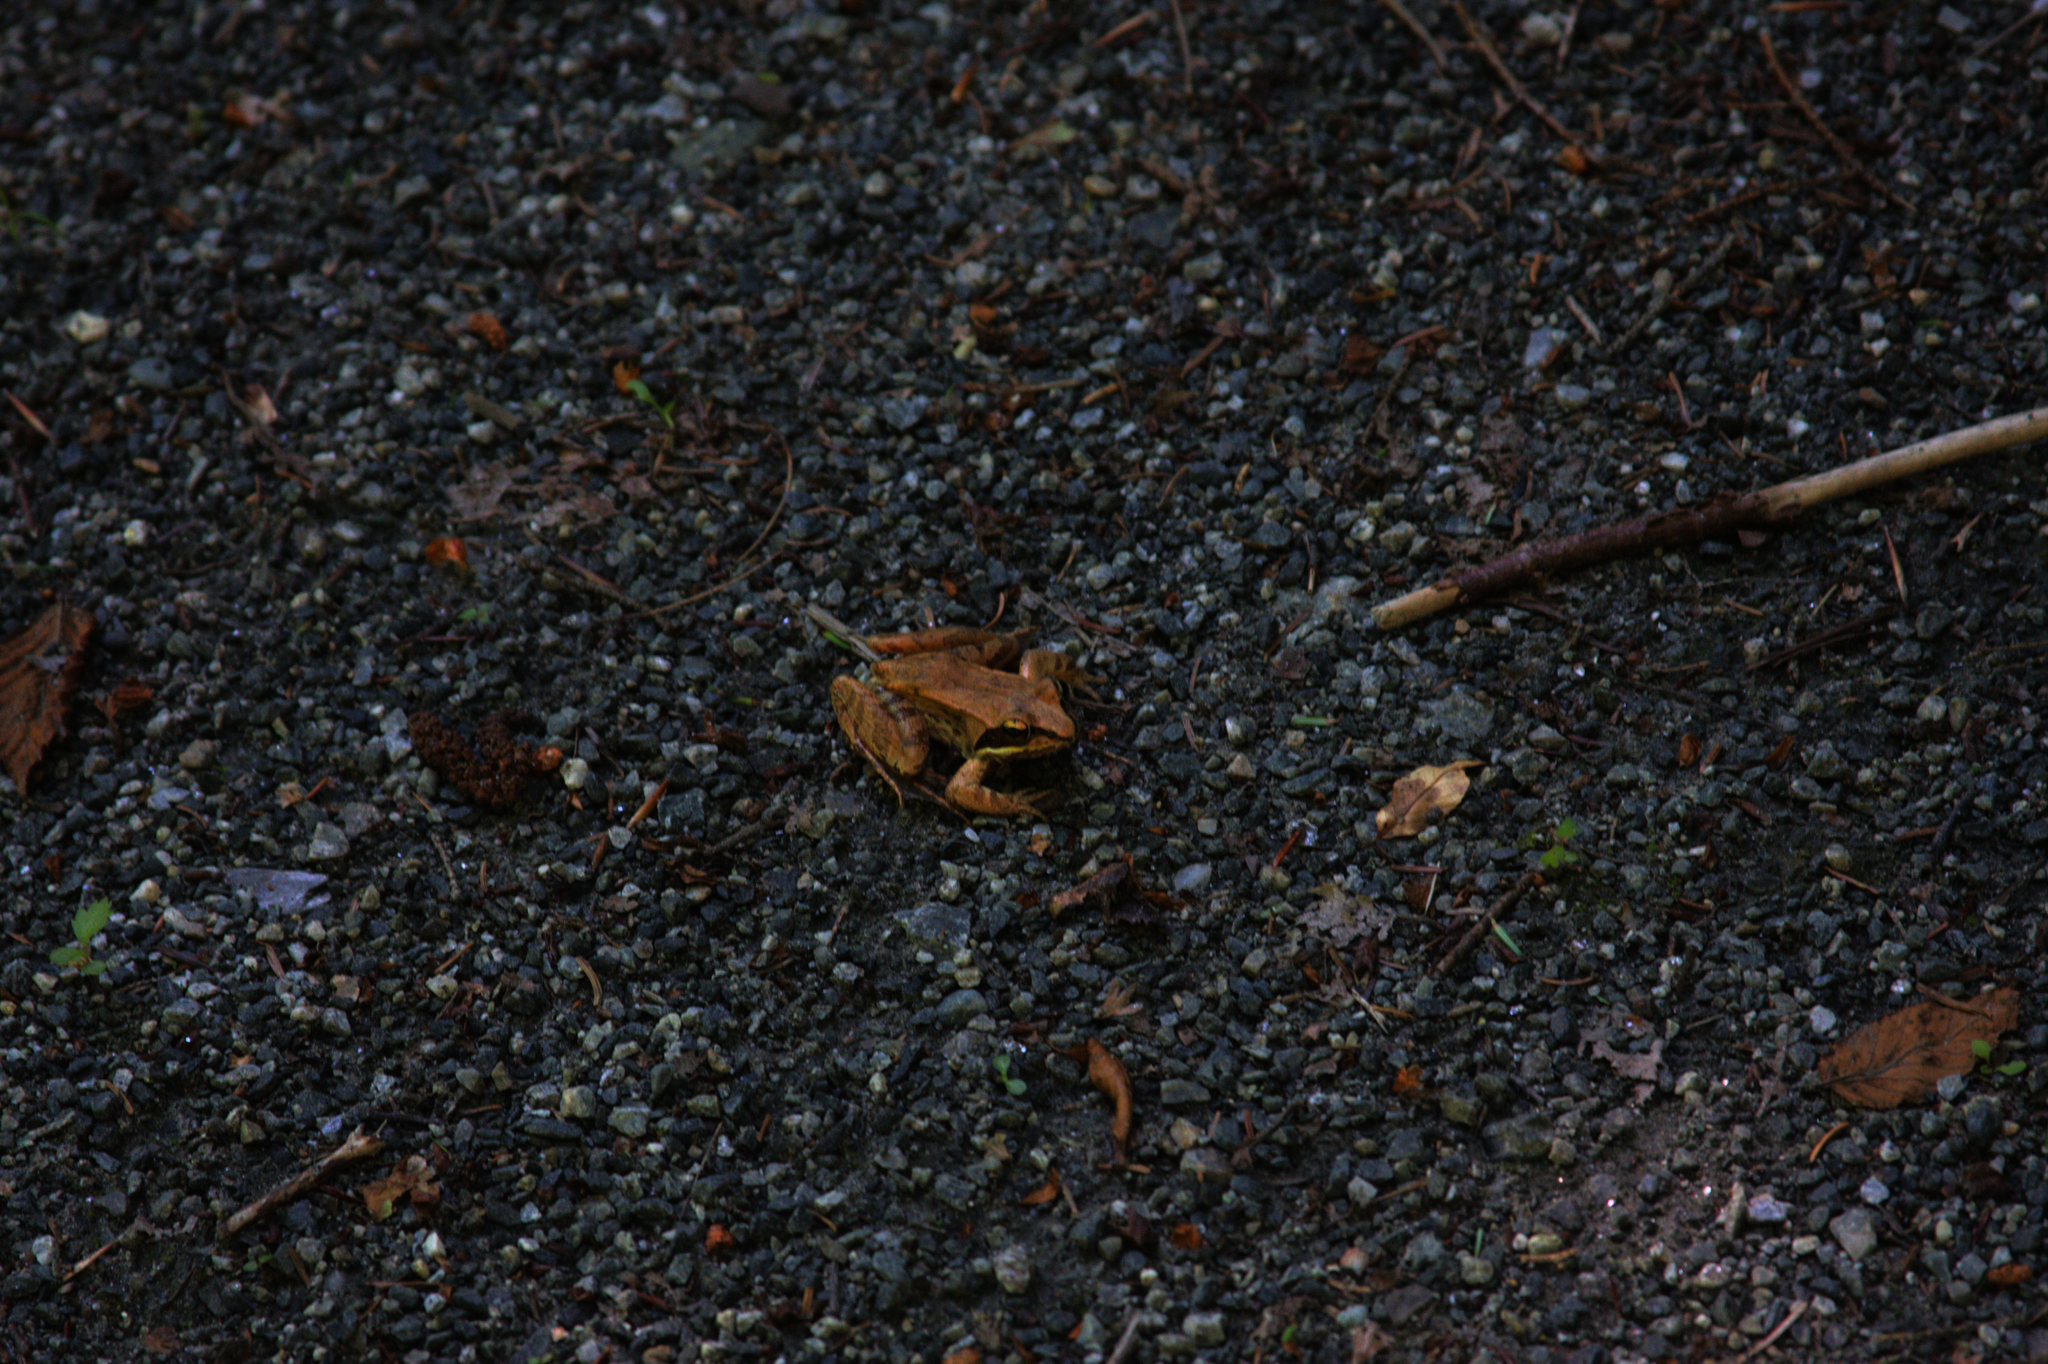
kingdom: Animalia
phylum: Chordata
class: Amphibia
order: Anura
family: Ranidae
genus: Lithobates
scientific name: Lithobates sylvaticus
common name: Wood frog
